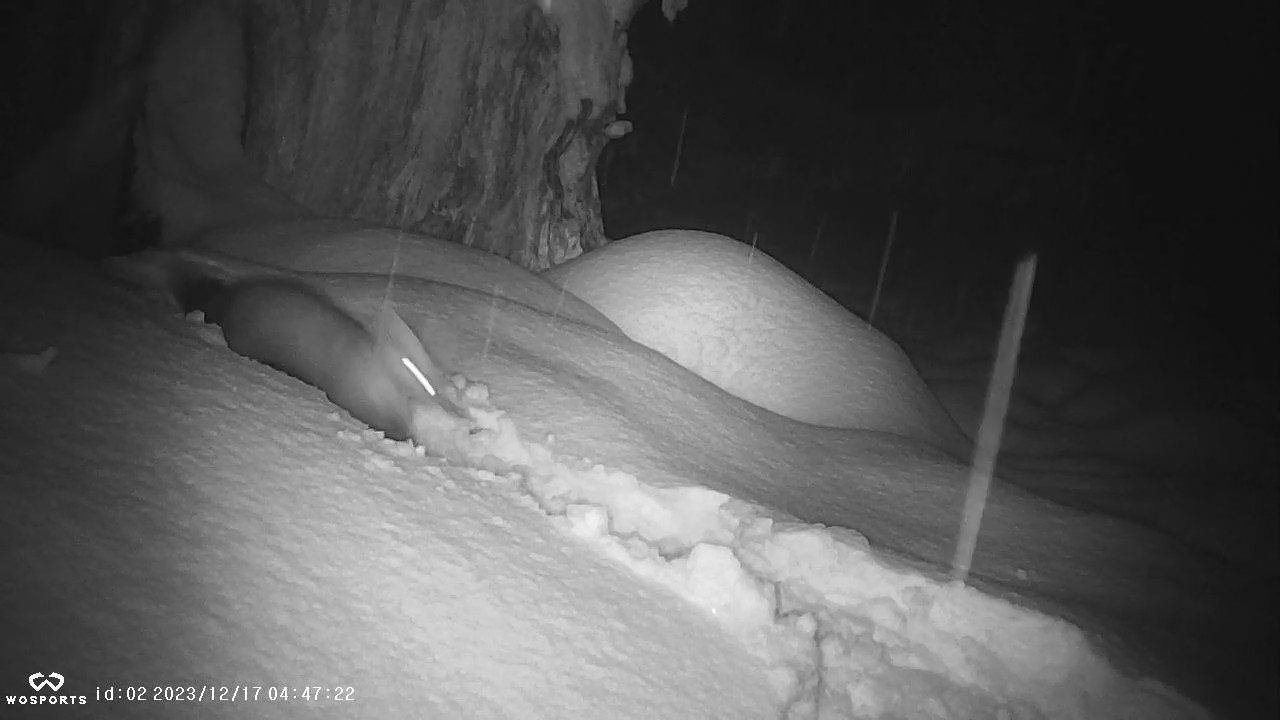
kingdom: Animalia
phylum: Chordata
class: Mammalia
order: Carnivora
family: Mustelidae
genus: Martes
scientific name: Martes americana
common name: American marten
